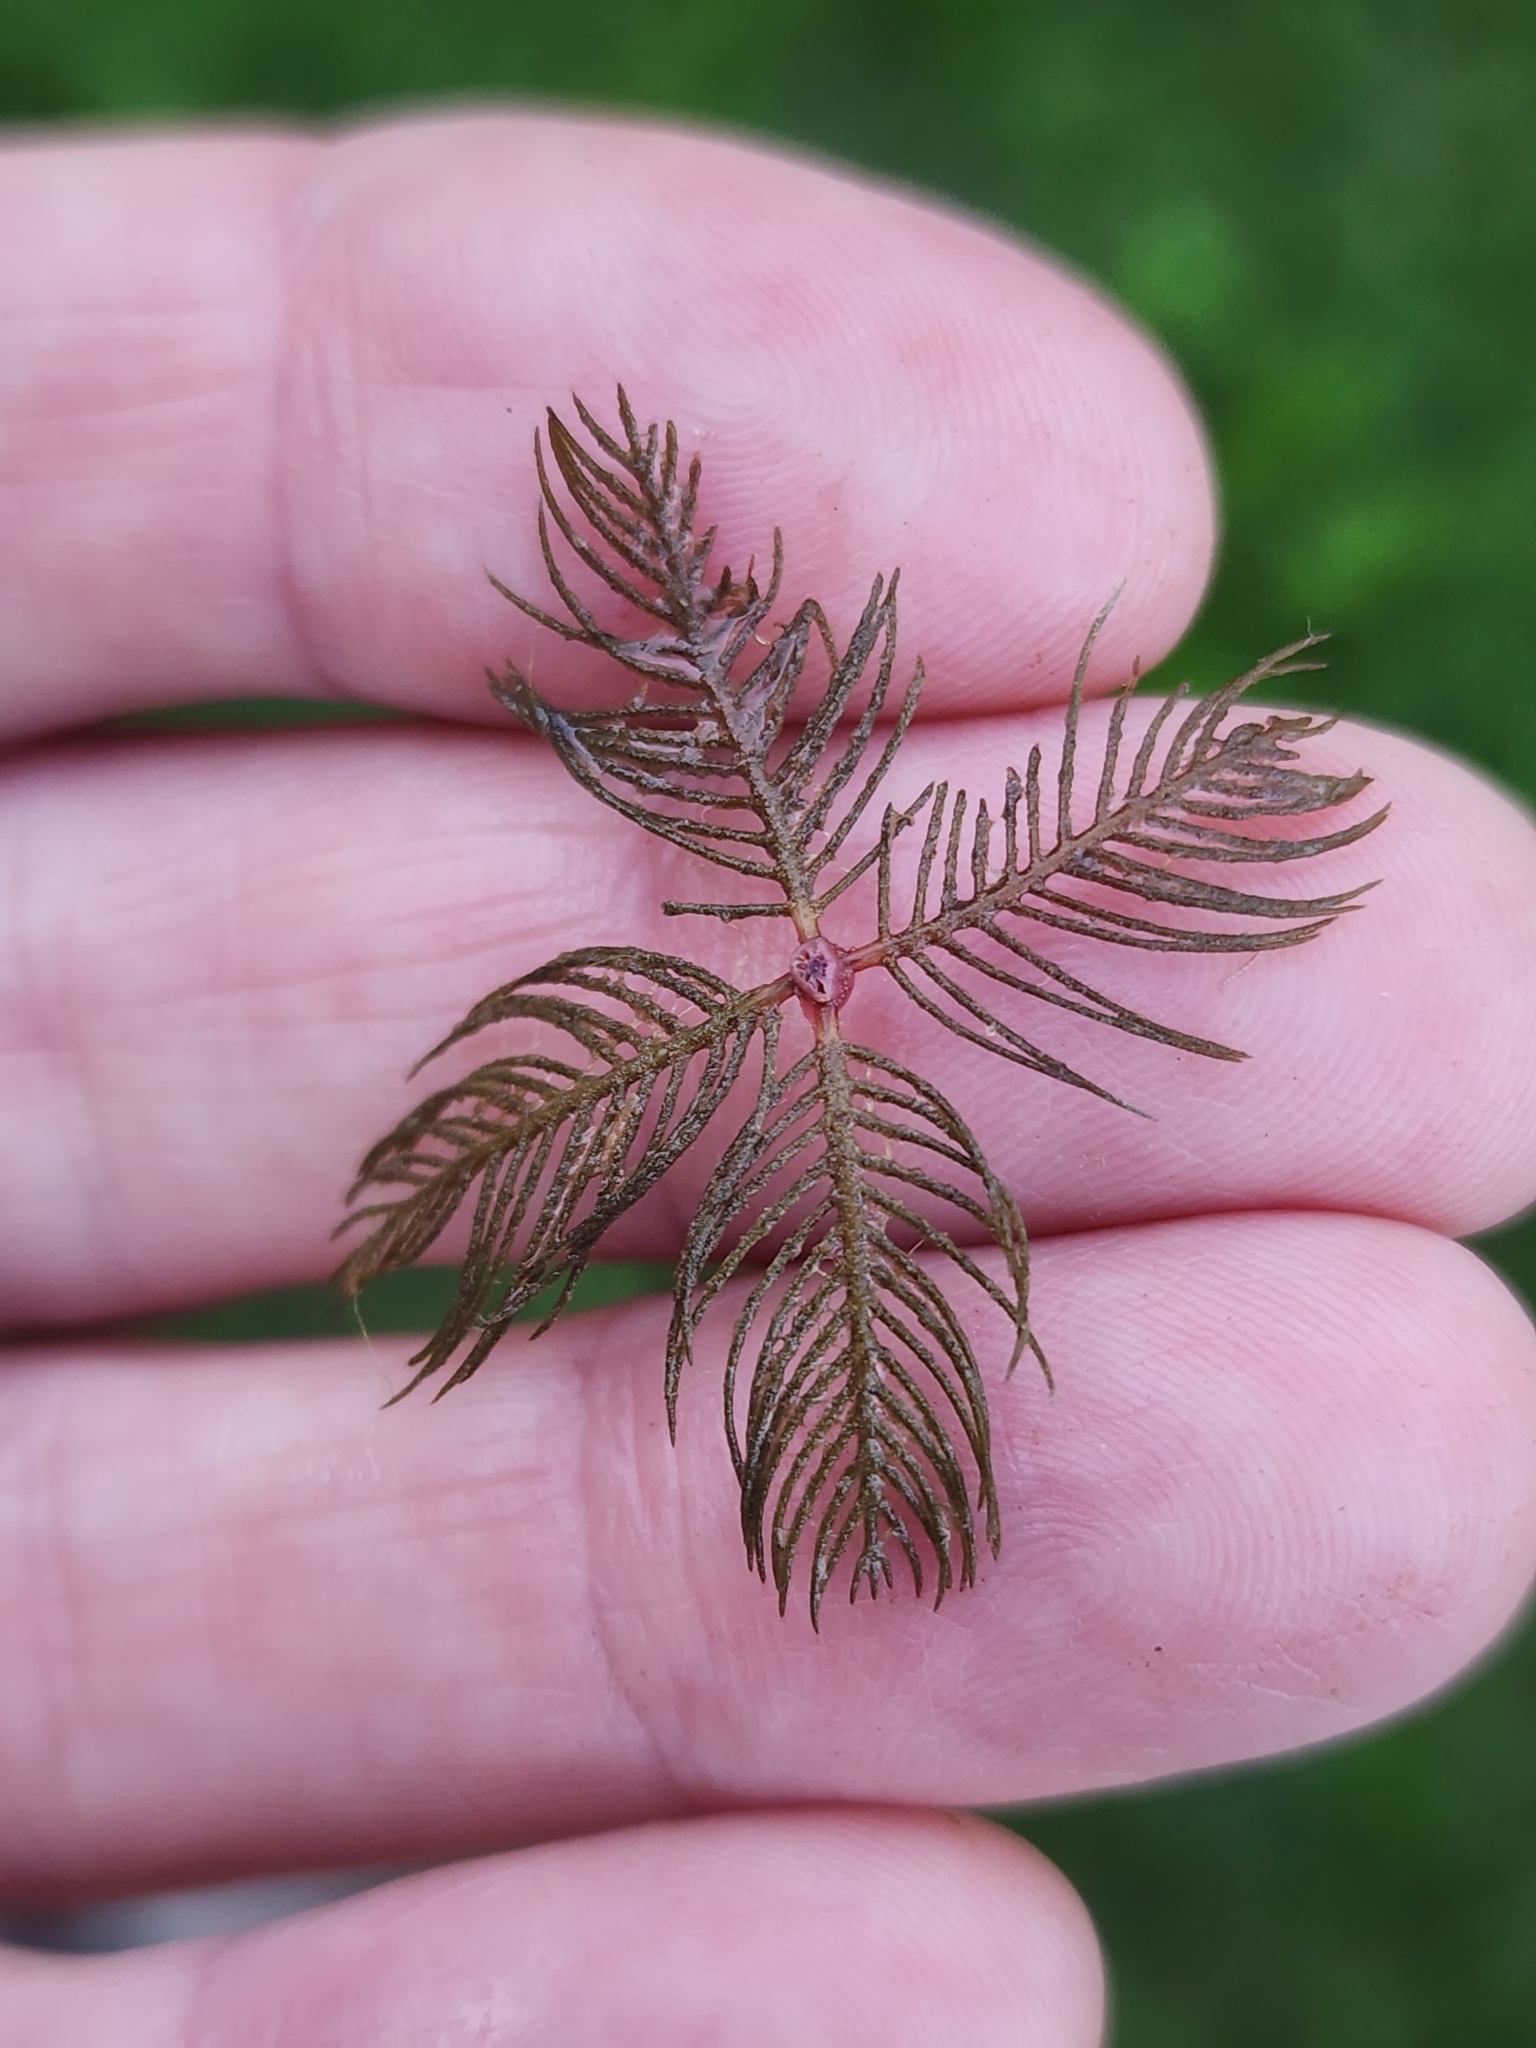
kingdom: Plantae
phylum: Tracheophyta
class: Magnoliopsida
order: Saxifragales
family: Haloragaceae
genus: Myriophyllum
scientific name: Myriophyllum spicatum
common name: Spiked water-milfoil
